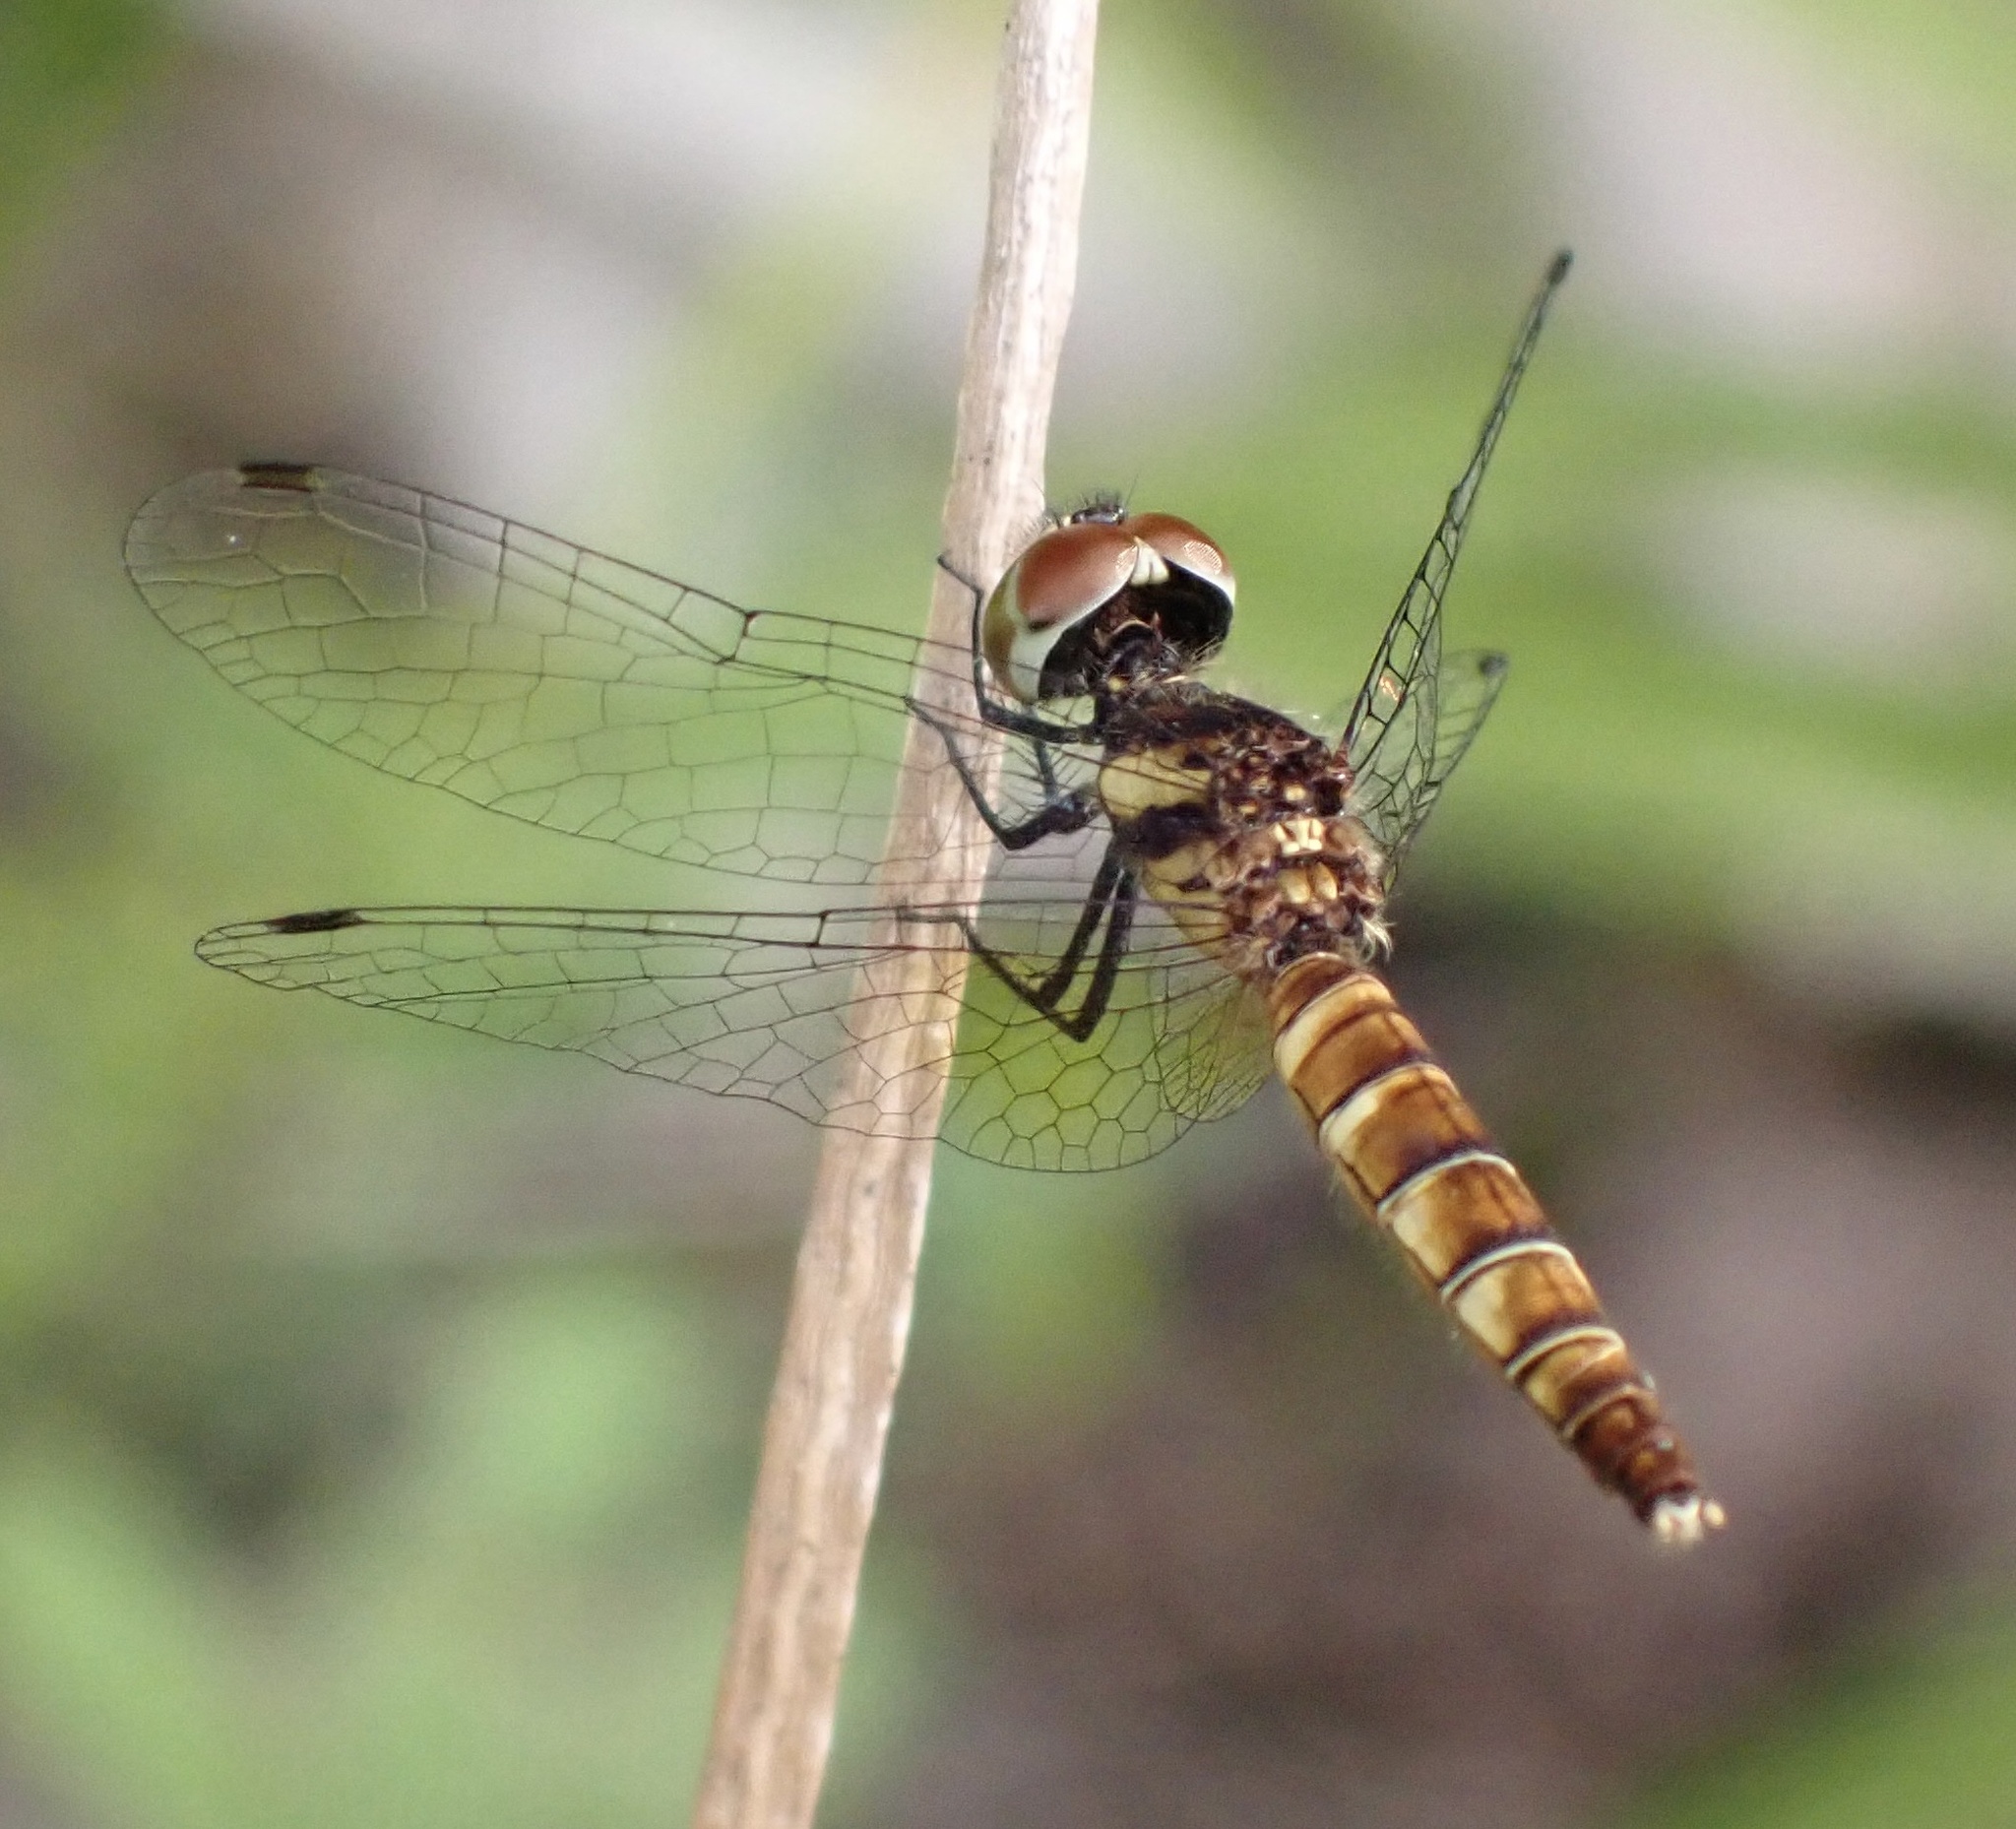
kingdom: Animalia
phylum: Arthropoda
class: Insecta
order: Odonata
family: Libellulidae
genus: Nannophya
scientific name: Nannophya pygmaea
